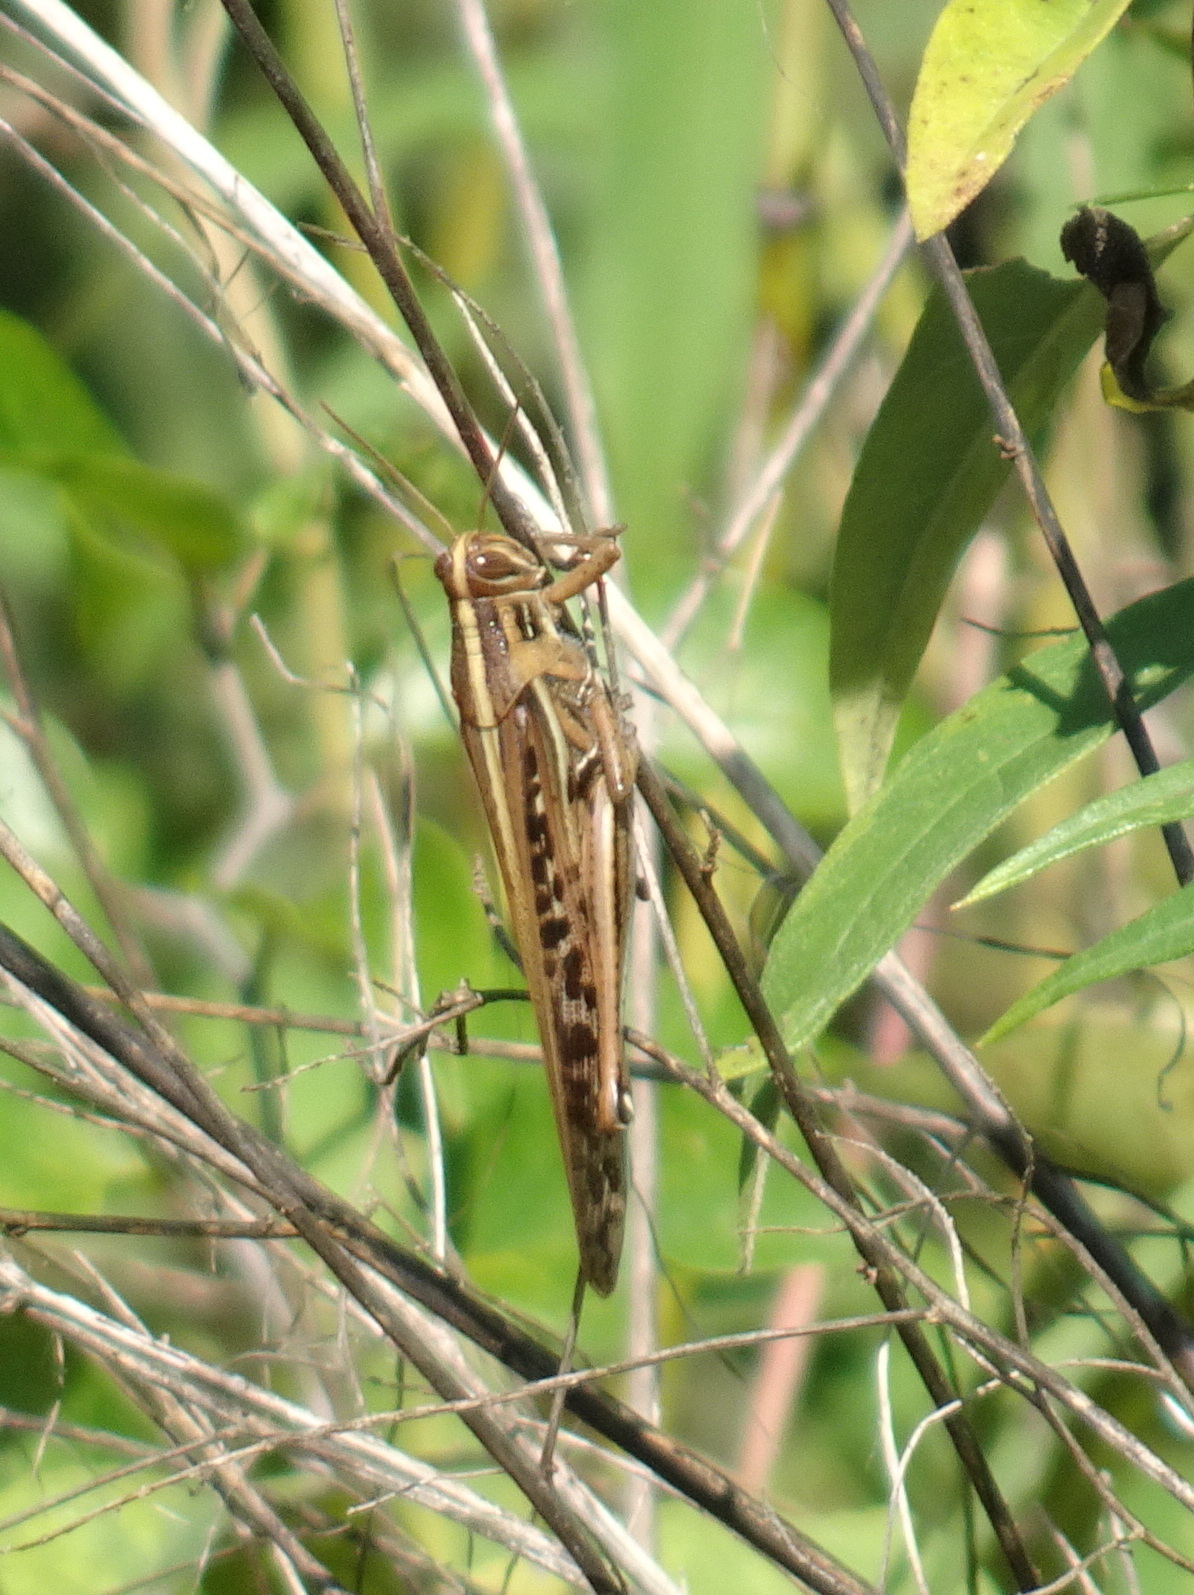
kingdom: Animalia
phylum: Arthropoda
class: Insecta
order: Orthoptera
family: Acrididae
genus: Schistocerca
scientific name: Schistocerca americana
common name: American bird locust
